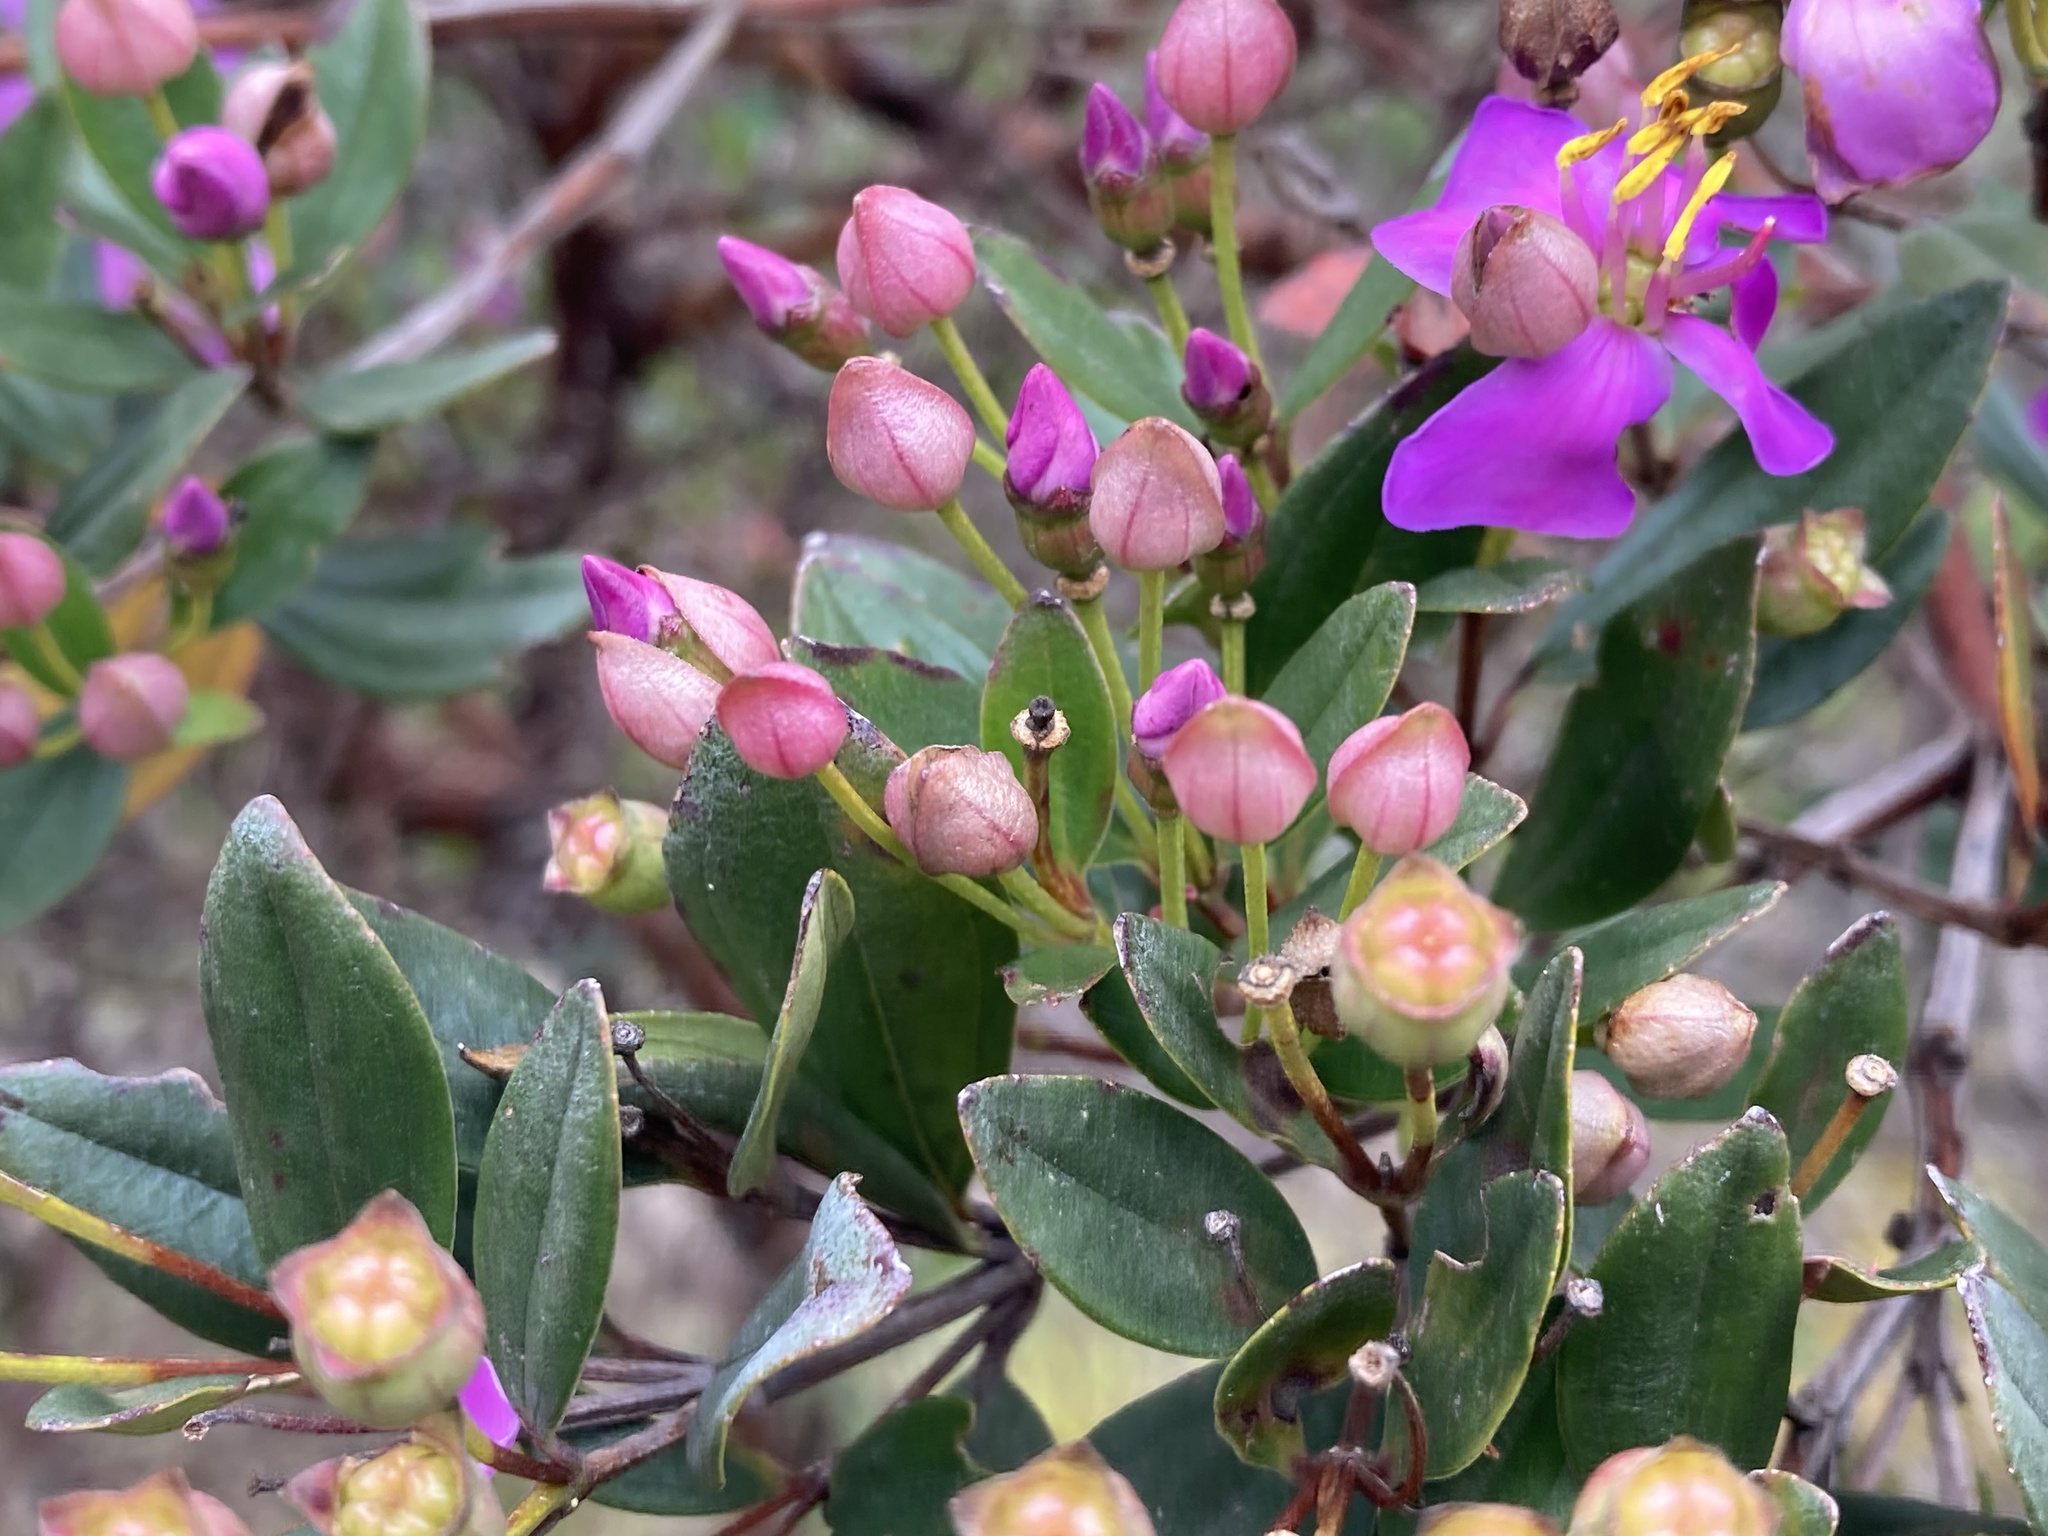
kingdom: Plantae
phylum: Tracheophyta
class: Magnoliopsida
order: Myrtales
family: Melastomataceae
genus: Bucquetia
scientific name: Bucquetia glutinosa
